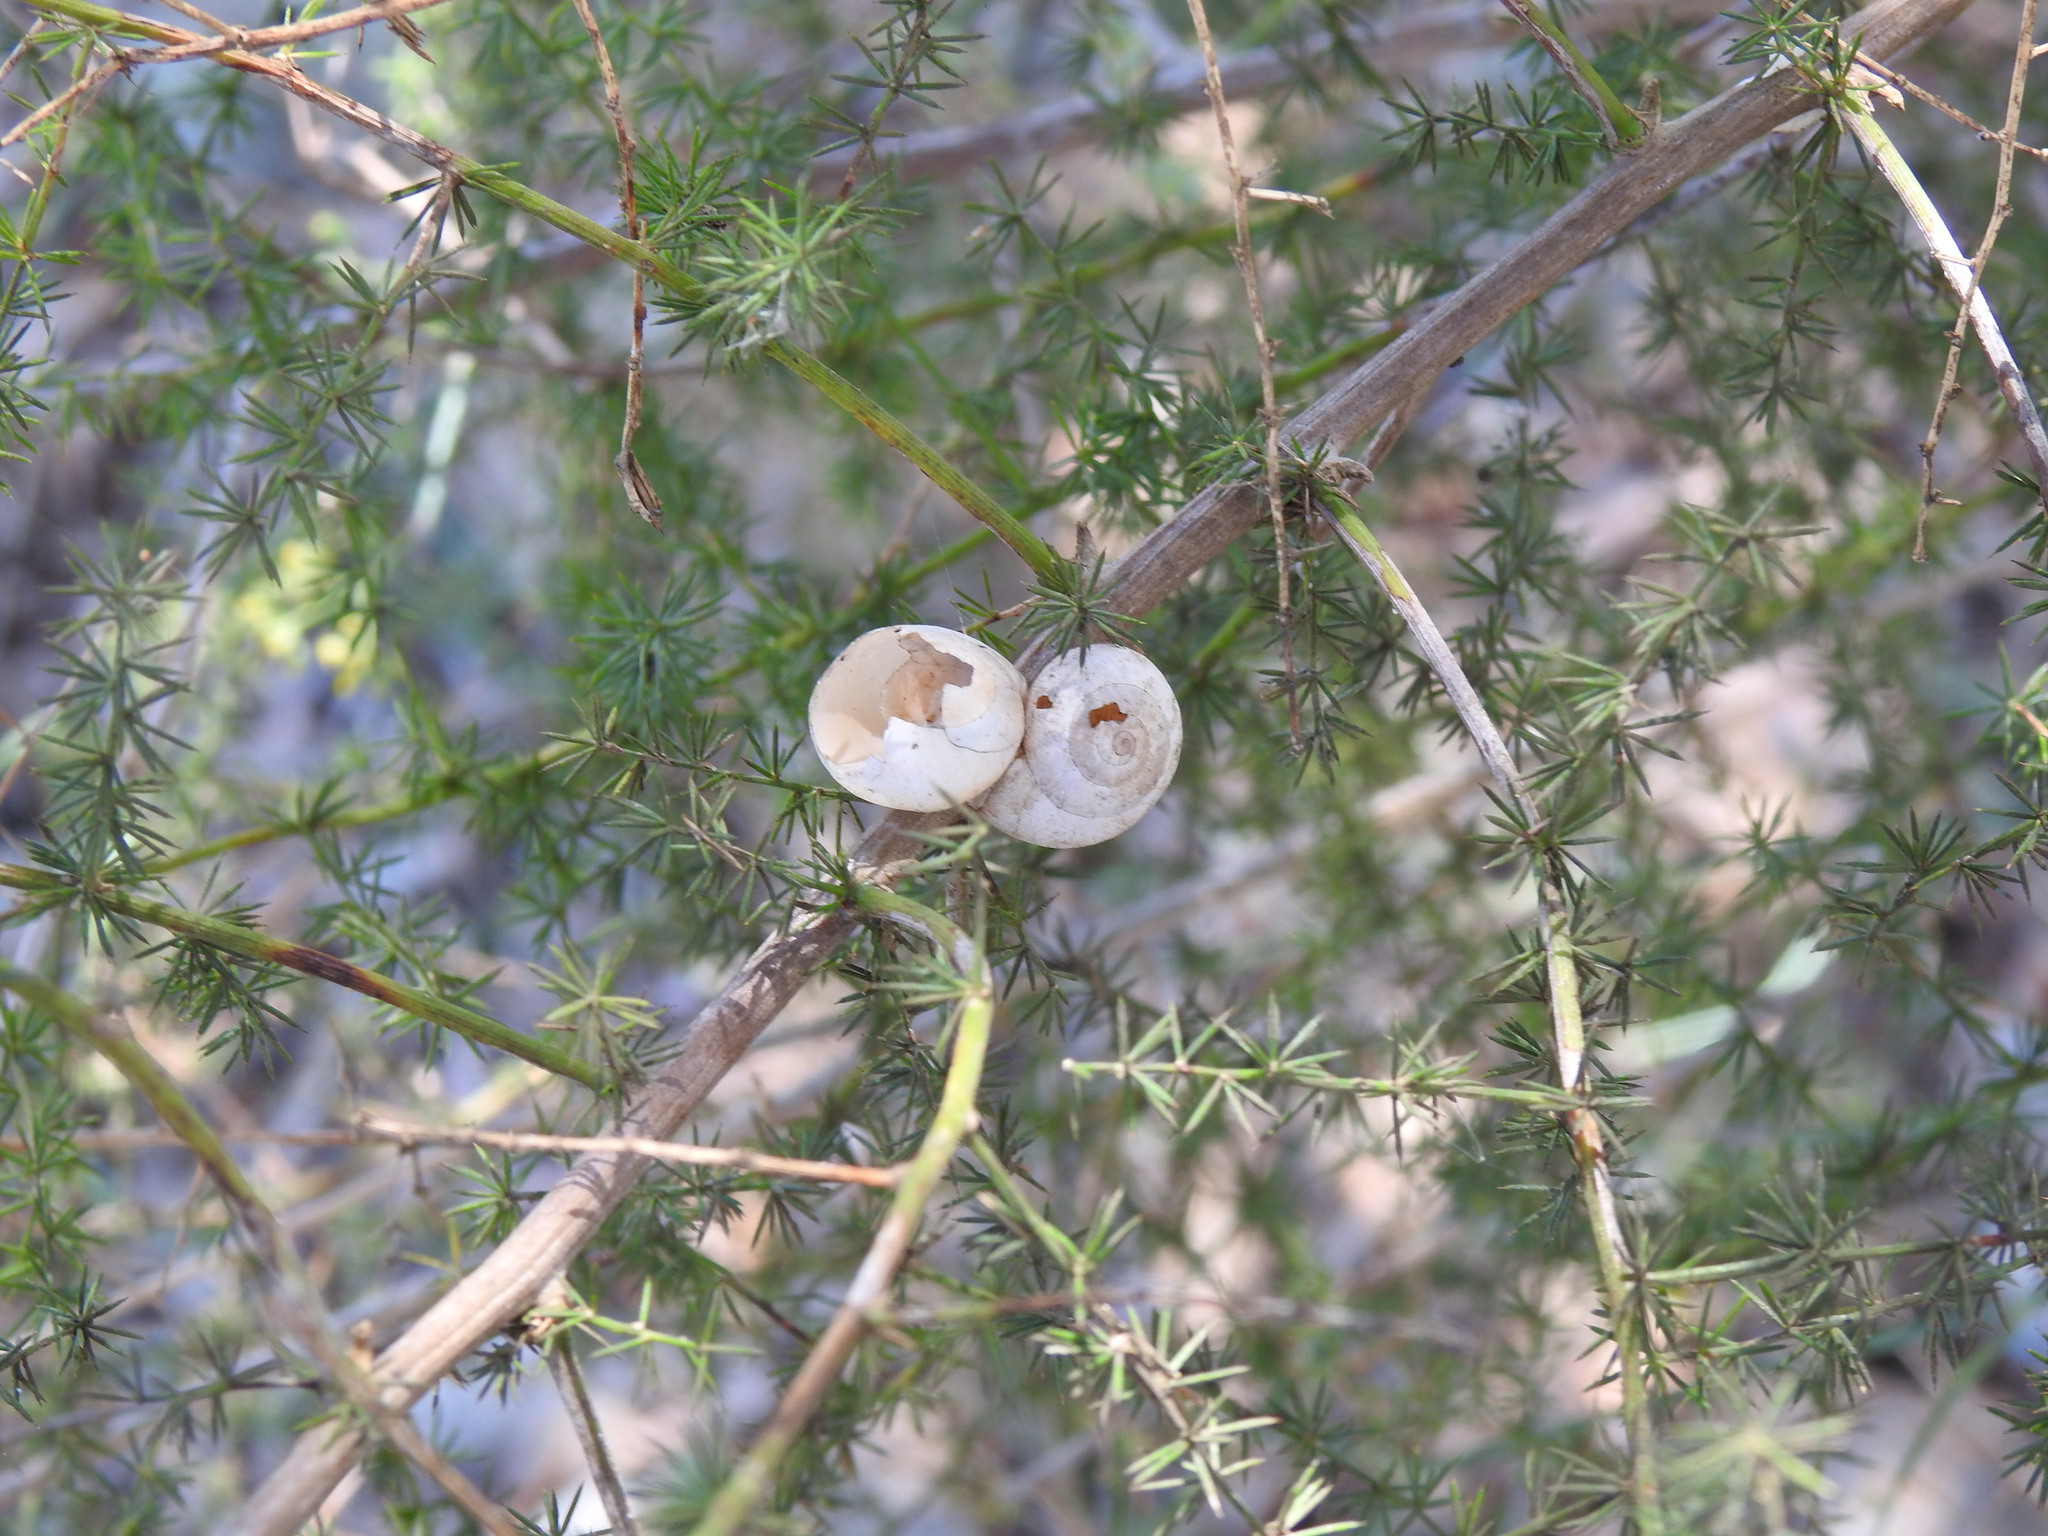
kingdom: Animalia
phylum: Mollusca
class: Gastropoda
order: Stylommatophora
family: Helicidae
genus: Theba
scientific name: Theba pisana
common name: White snail
